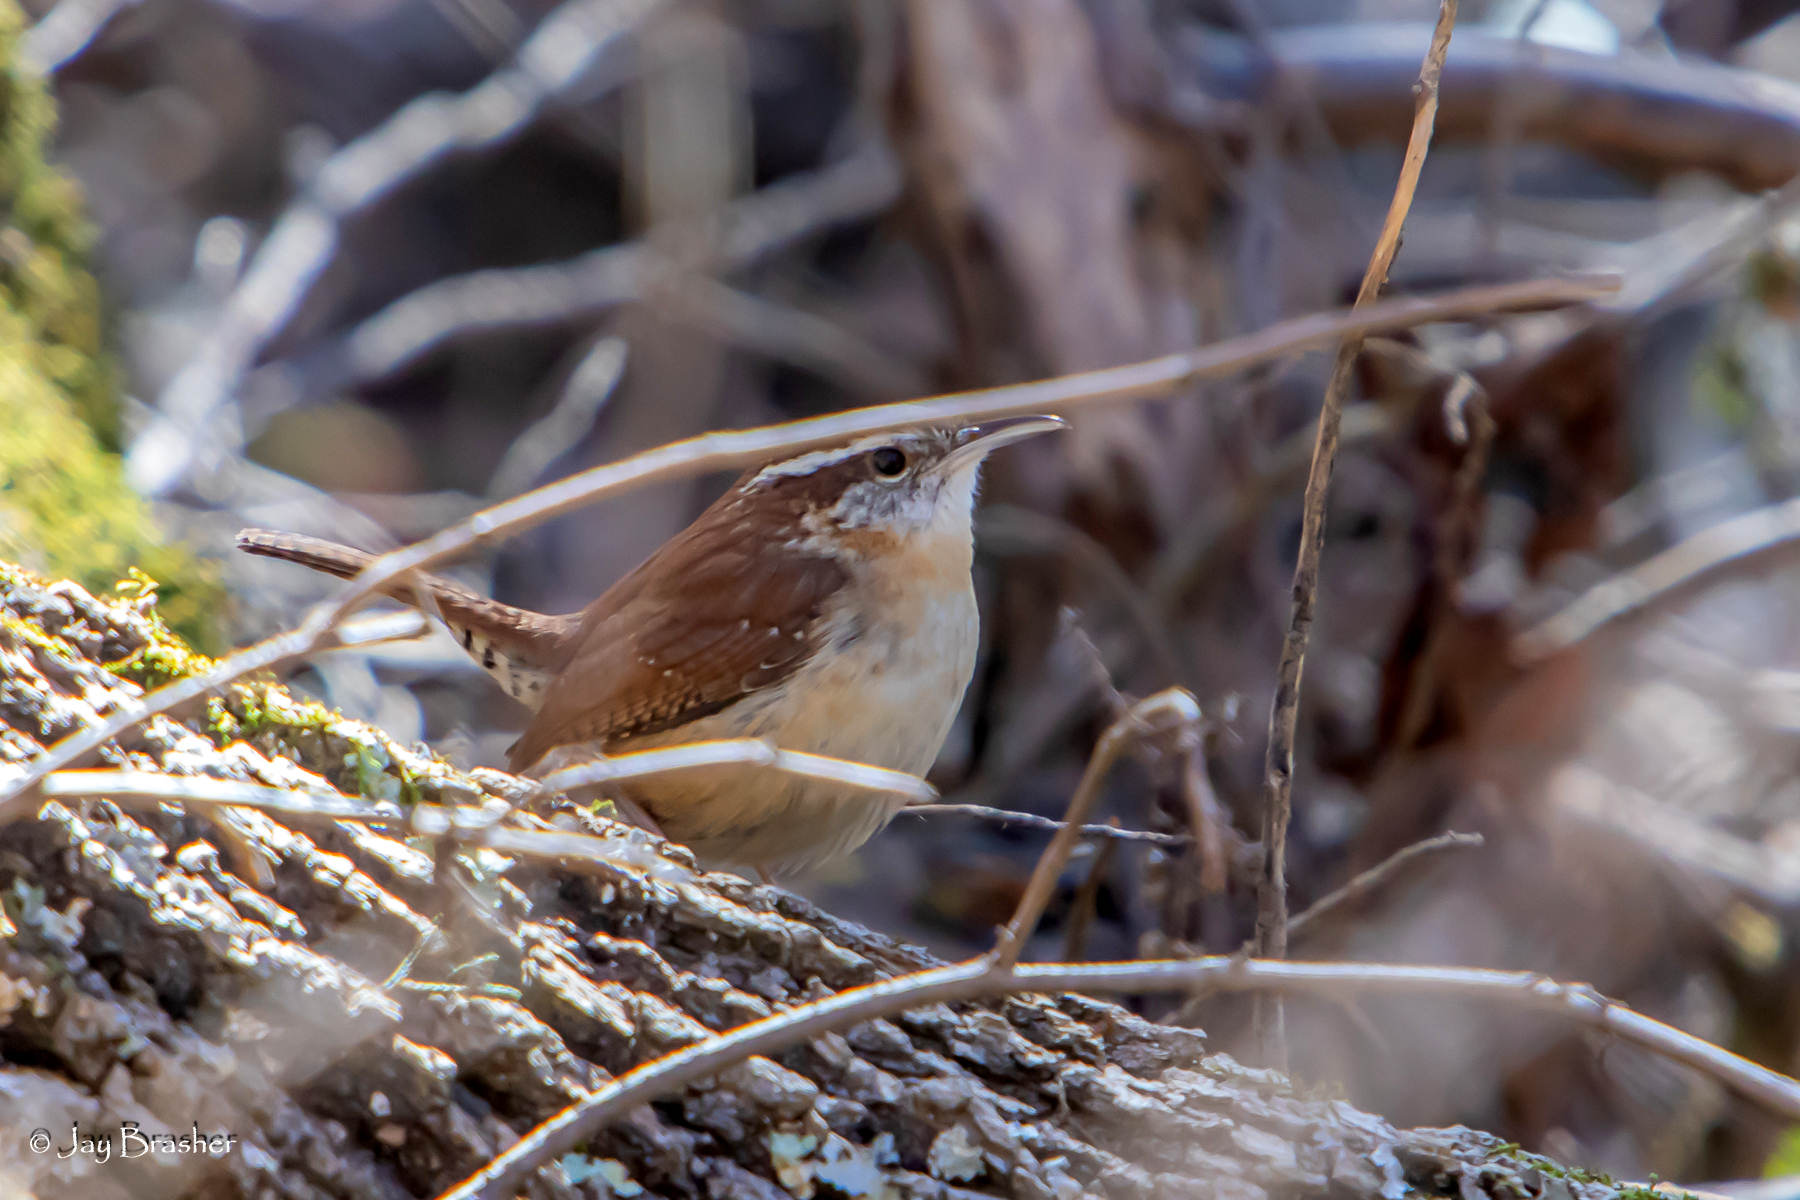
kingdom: Animalia
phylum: Chordata
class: Aves
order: Passeriformes
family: Troglodytidae
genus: Thryothorus
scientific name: Thryothorus ludovicianus
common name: Carolina wren
